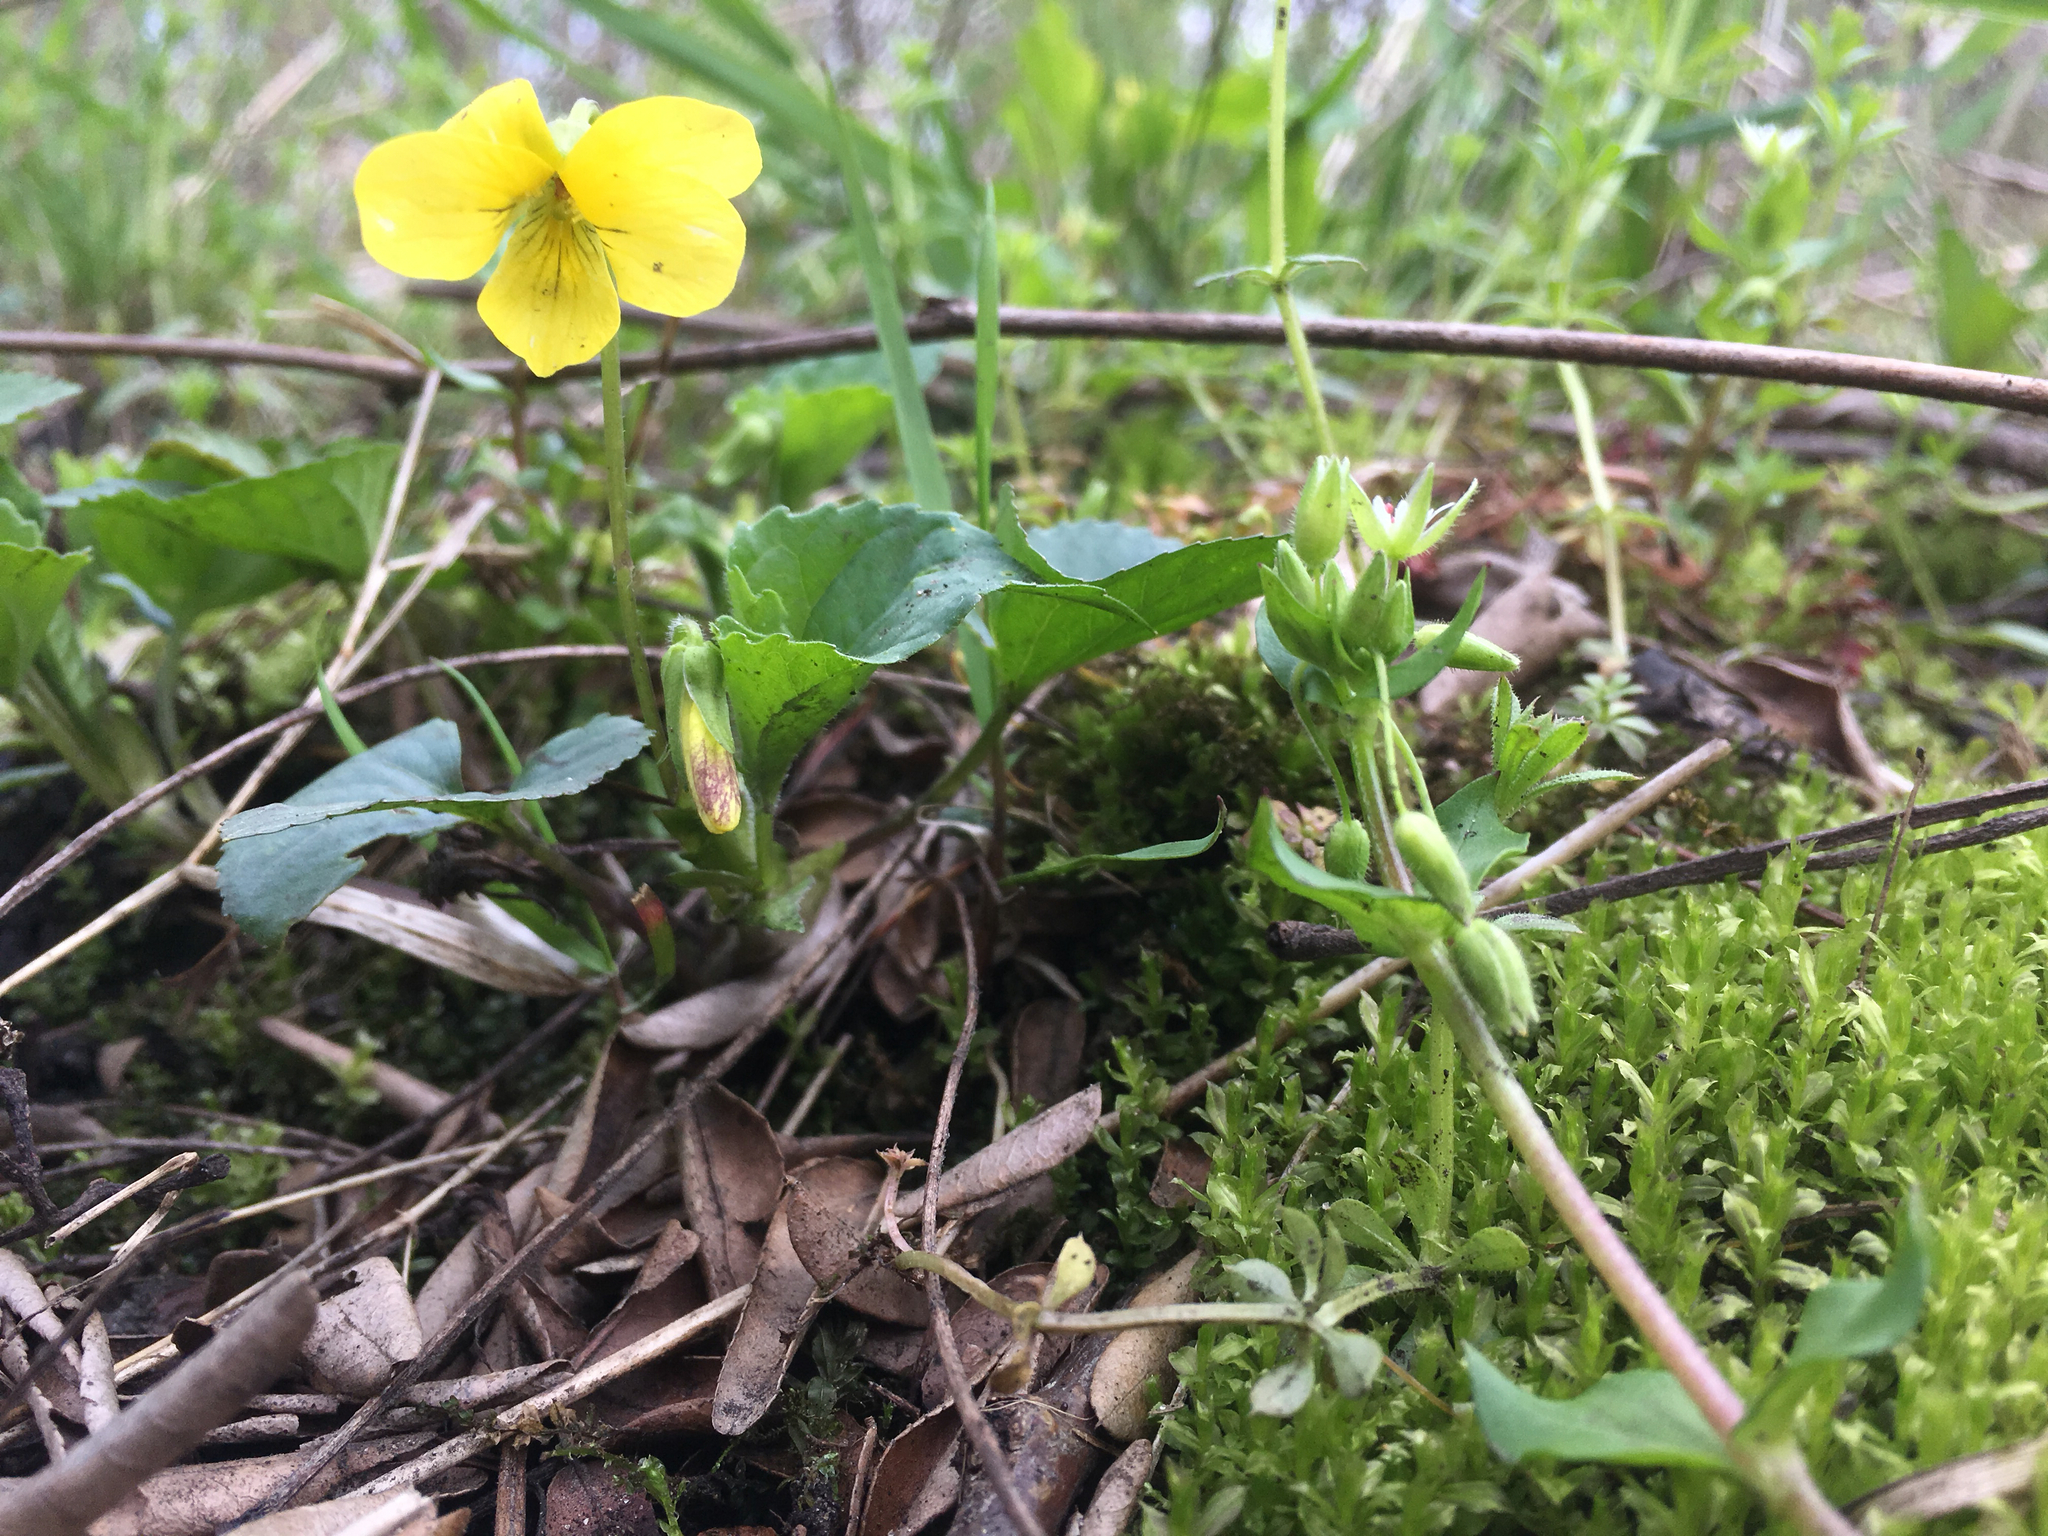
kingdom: Plantae
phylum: Tracheophyta
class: Magnoliopsida
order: Malpighiales
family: Violaceae
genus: Viola
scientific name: Viola eriocarpa
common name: Smooth yellow violet
